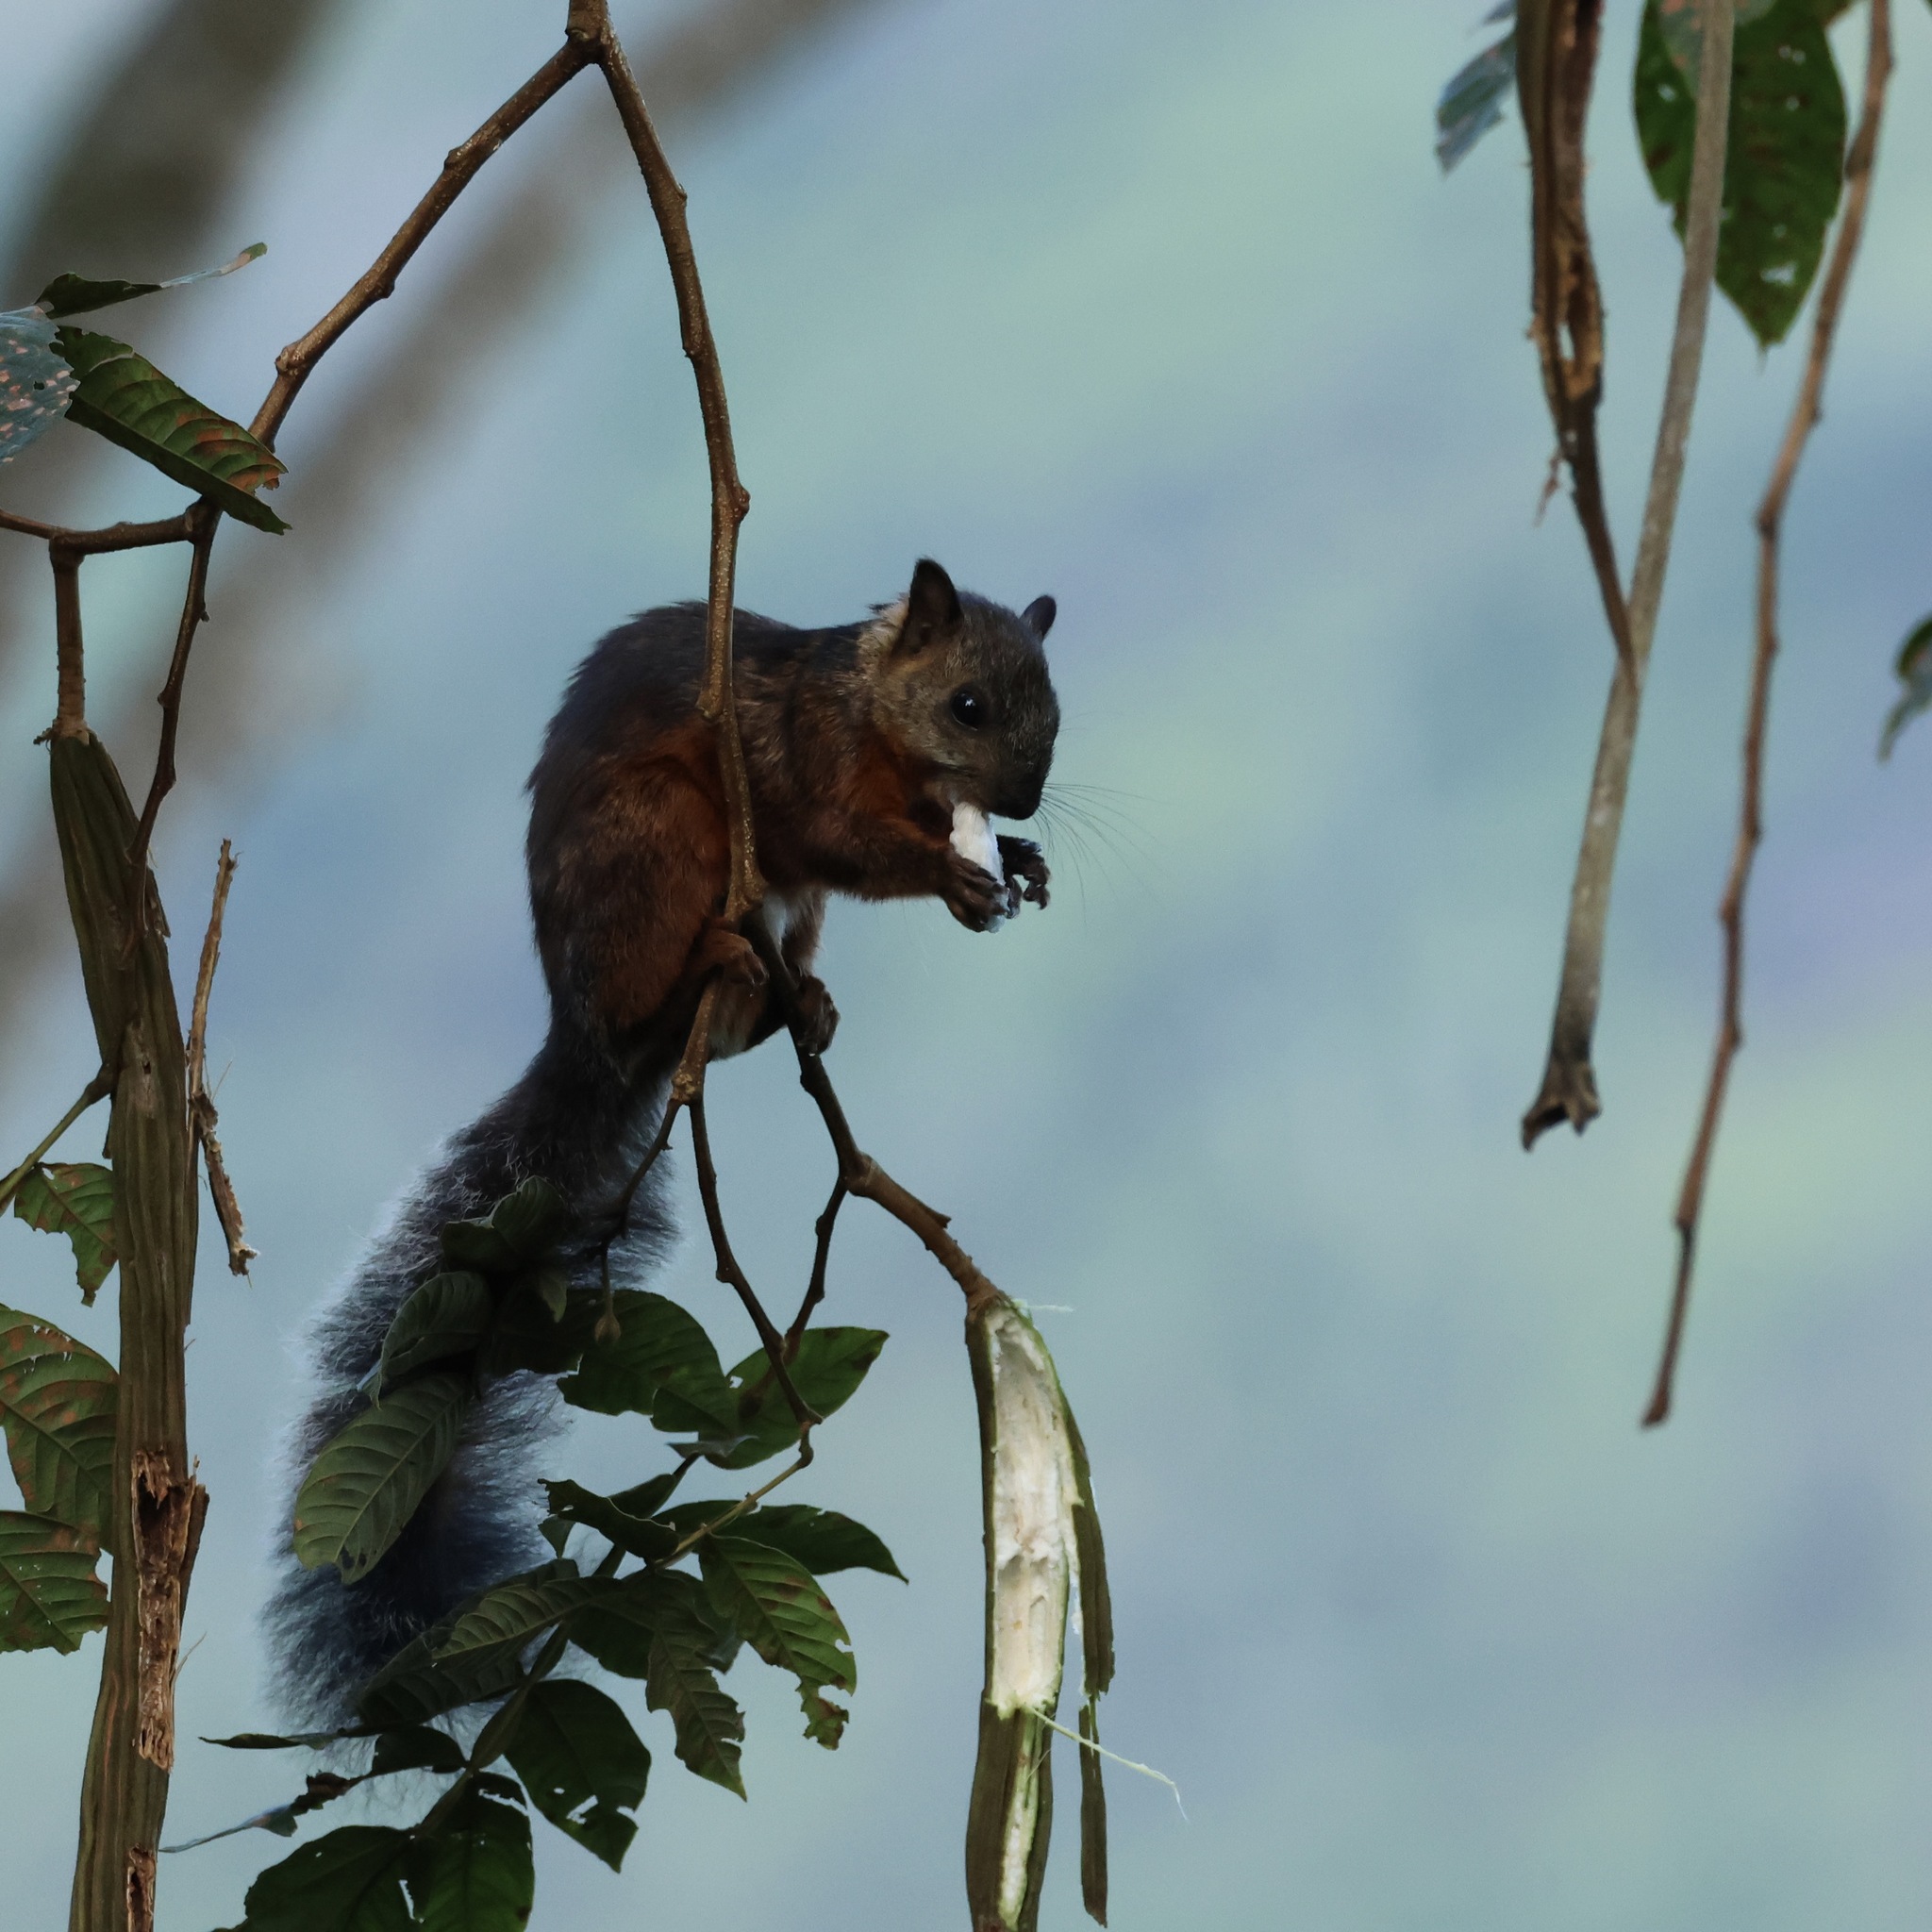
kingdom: Animalia
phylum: Chordata
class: Mammalia
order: Rodentia
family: Sciuridae
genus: Sciurus
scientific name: Sciurus variegatoides
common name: Variegated squirrel
